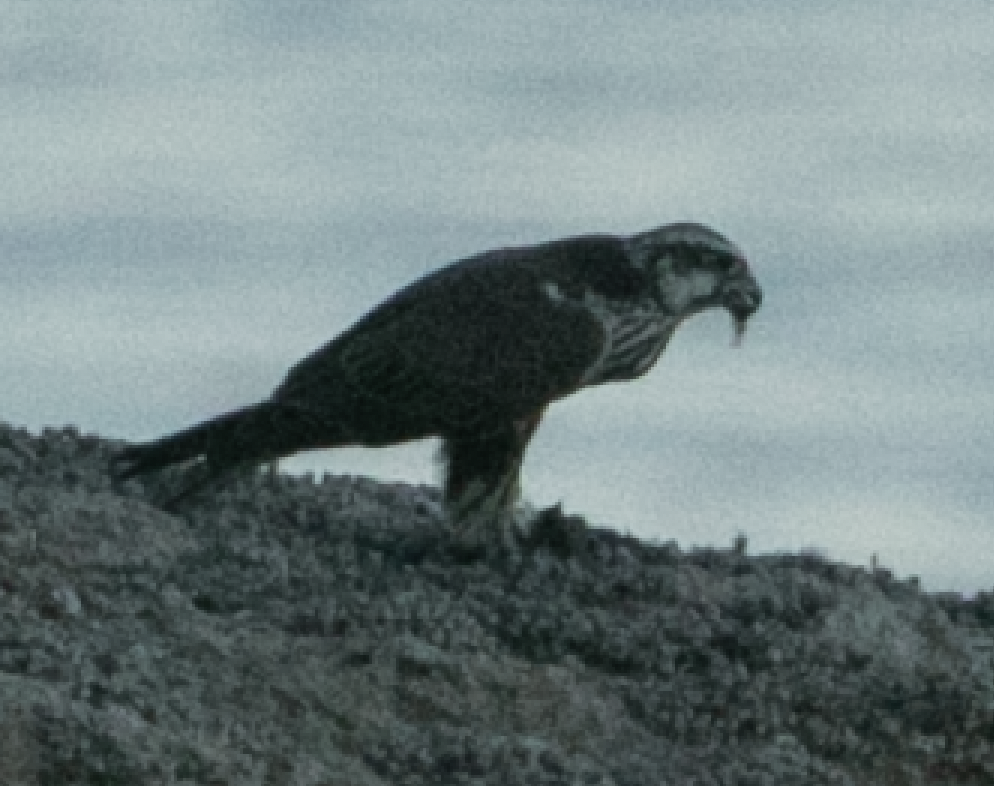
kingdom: Animalia
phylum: Chordata
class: Aves
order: Falconiformes
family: Falconidae
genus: Falco
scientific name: Falco cherrug
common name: Saker falcon
